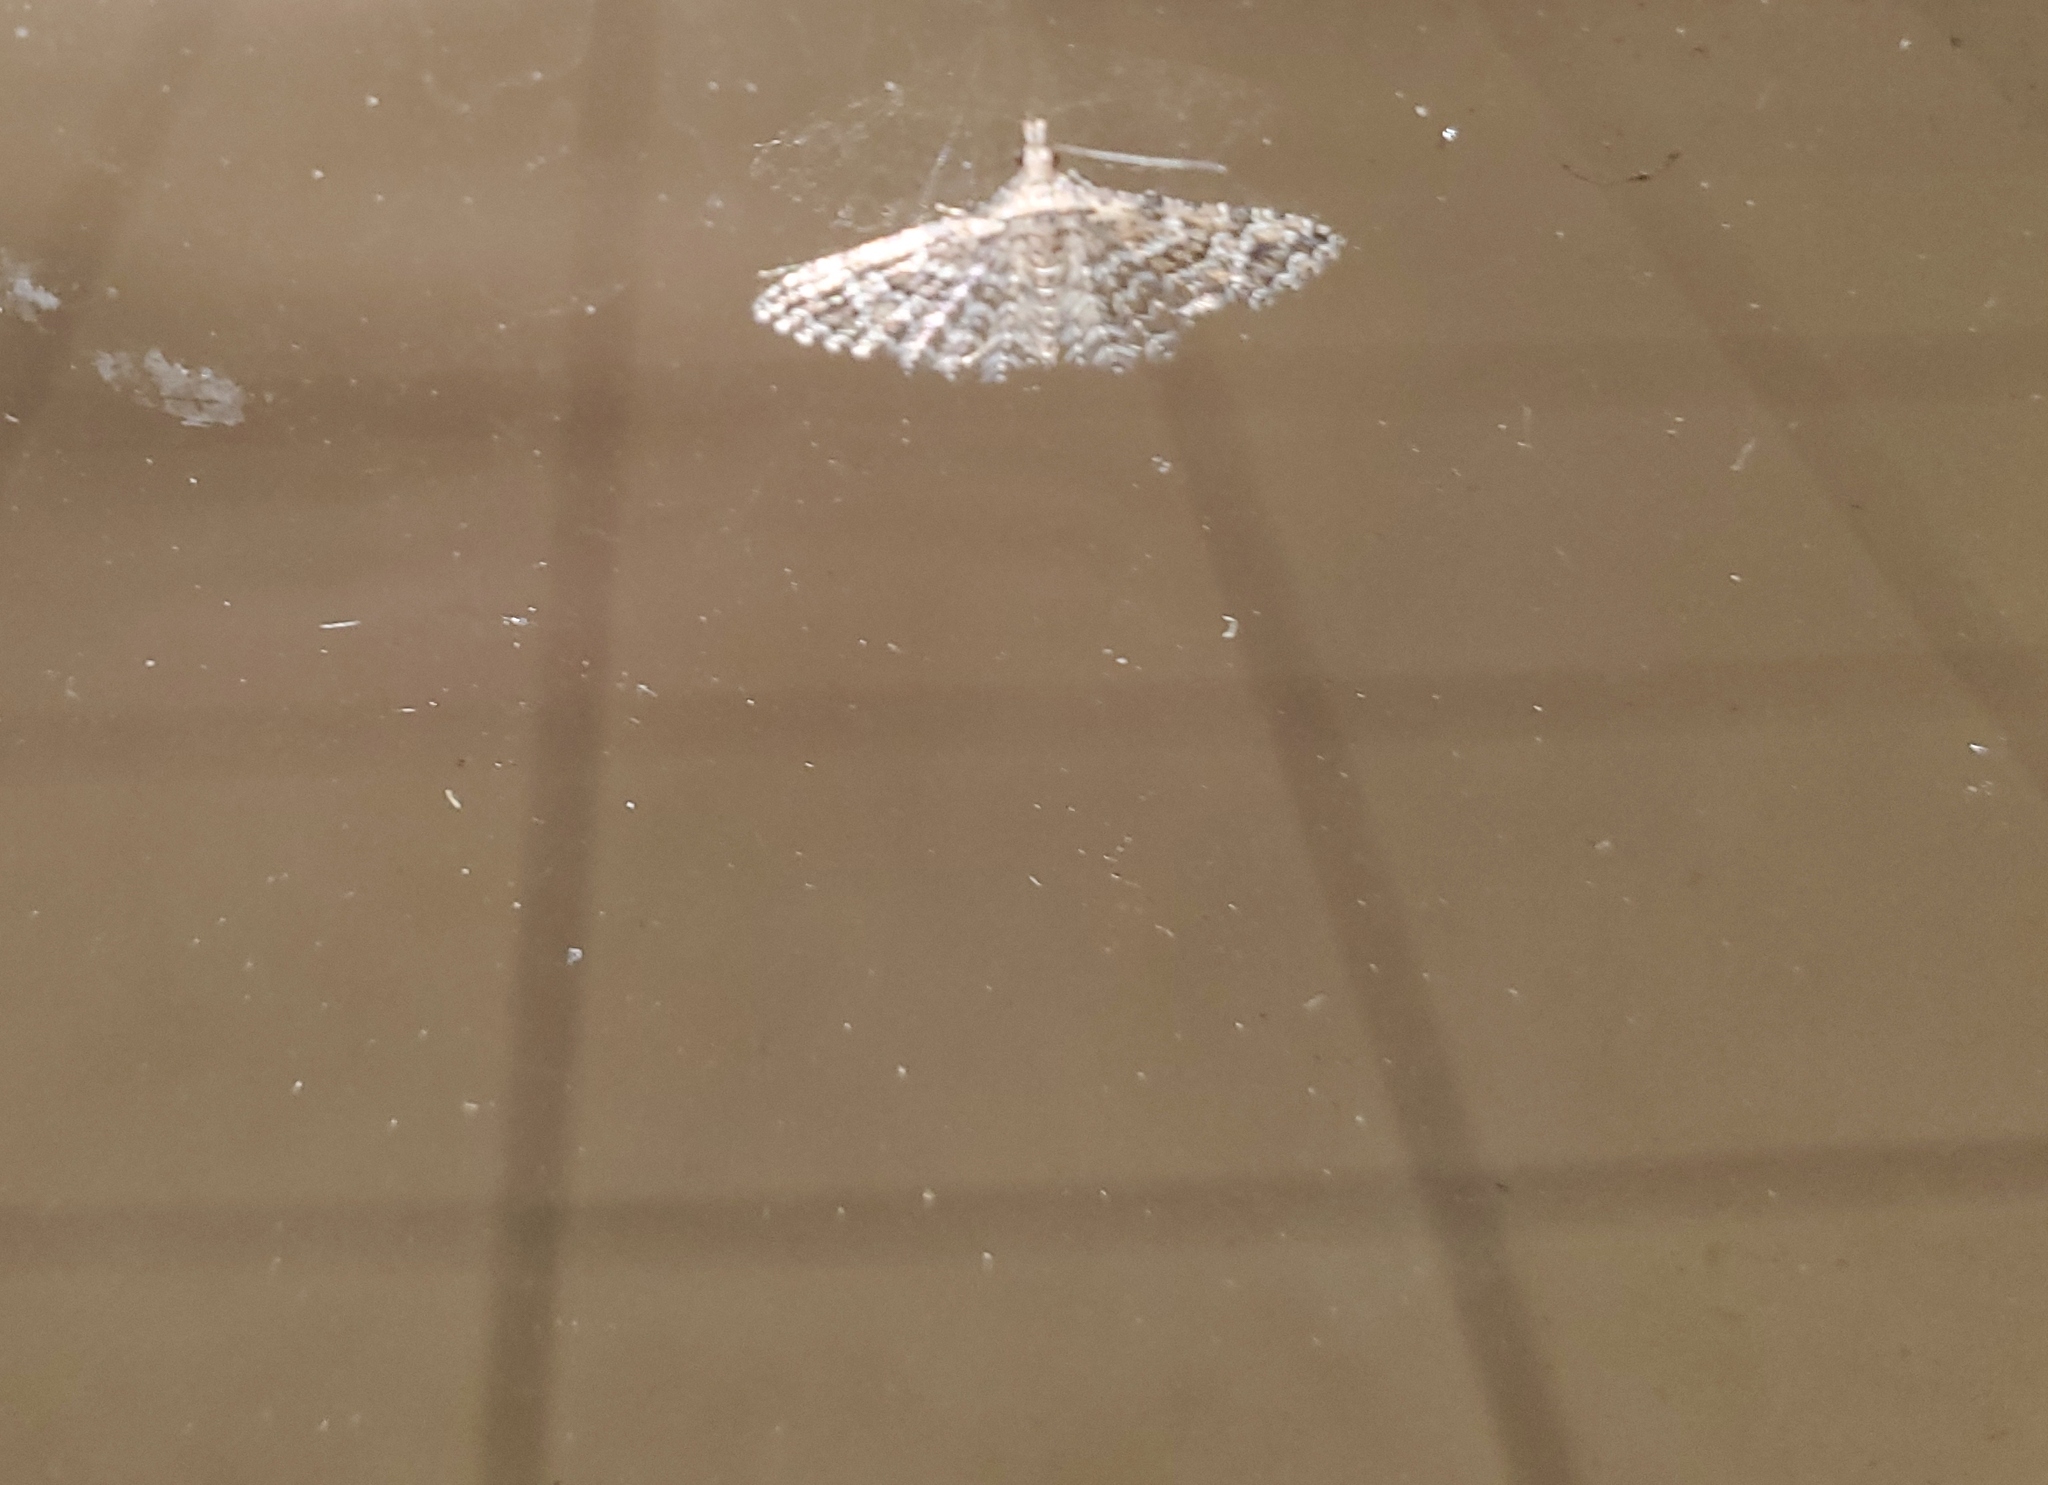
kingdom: Animalia
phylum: Arthropoda
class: Insecta
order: Lepidoptera
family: Alucitidae
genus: Alucita
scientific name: Alucita montana
